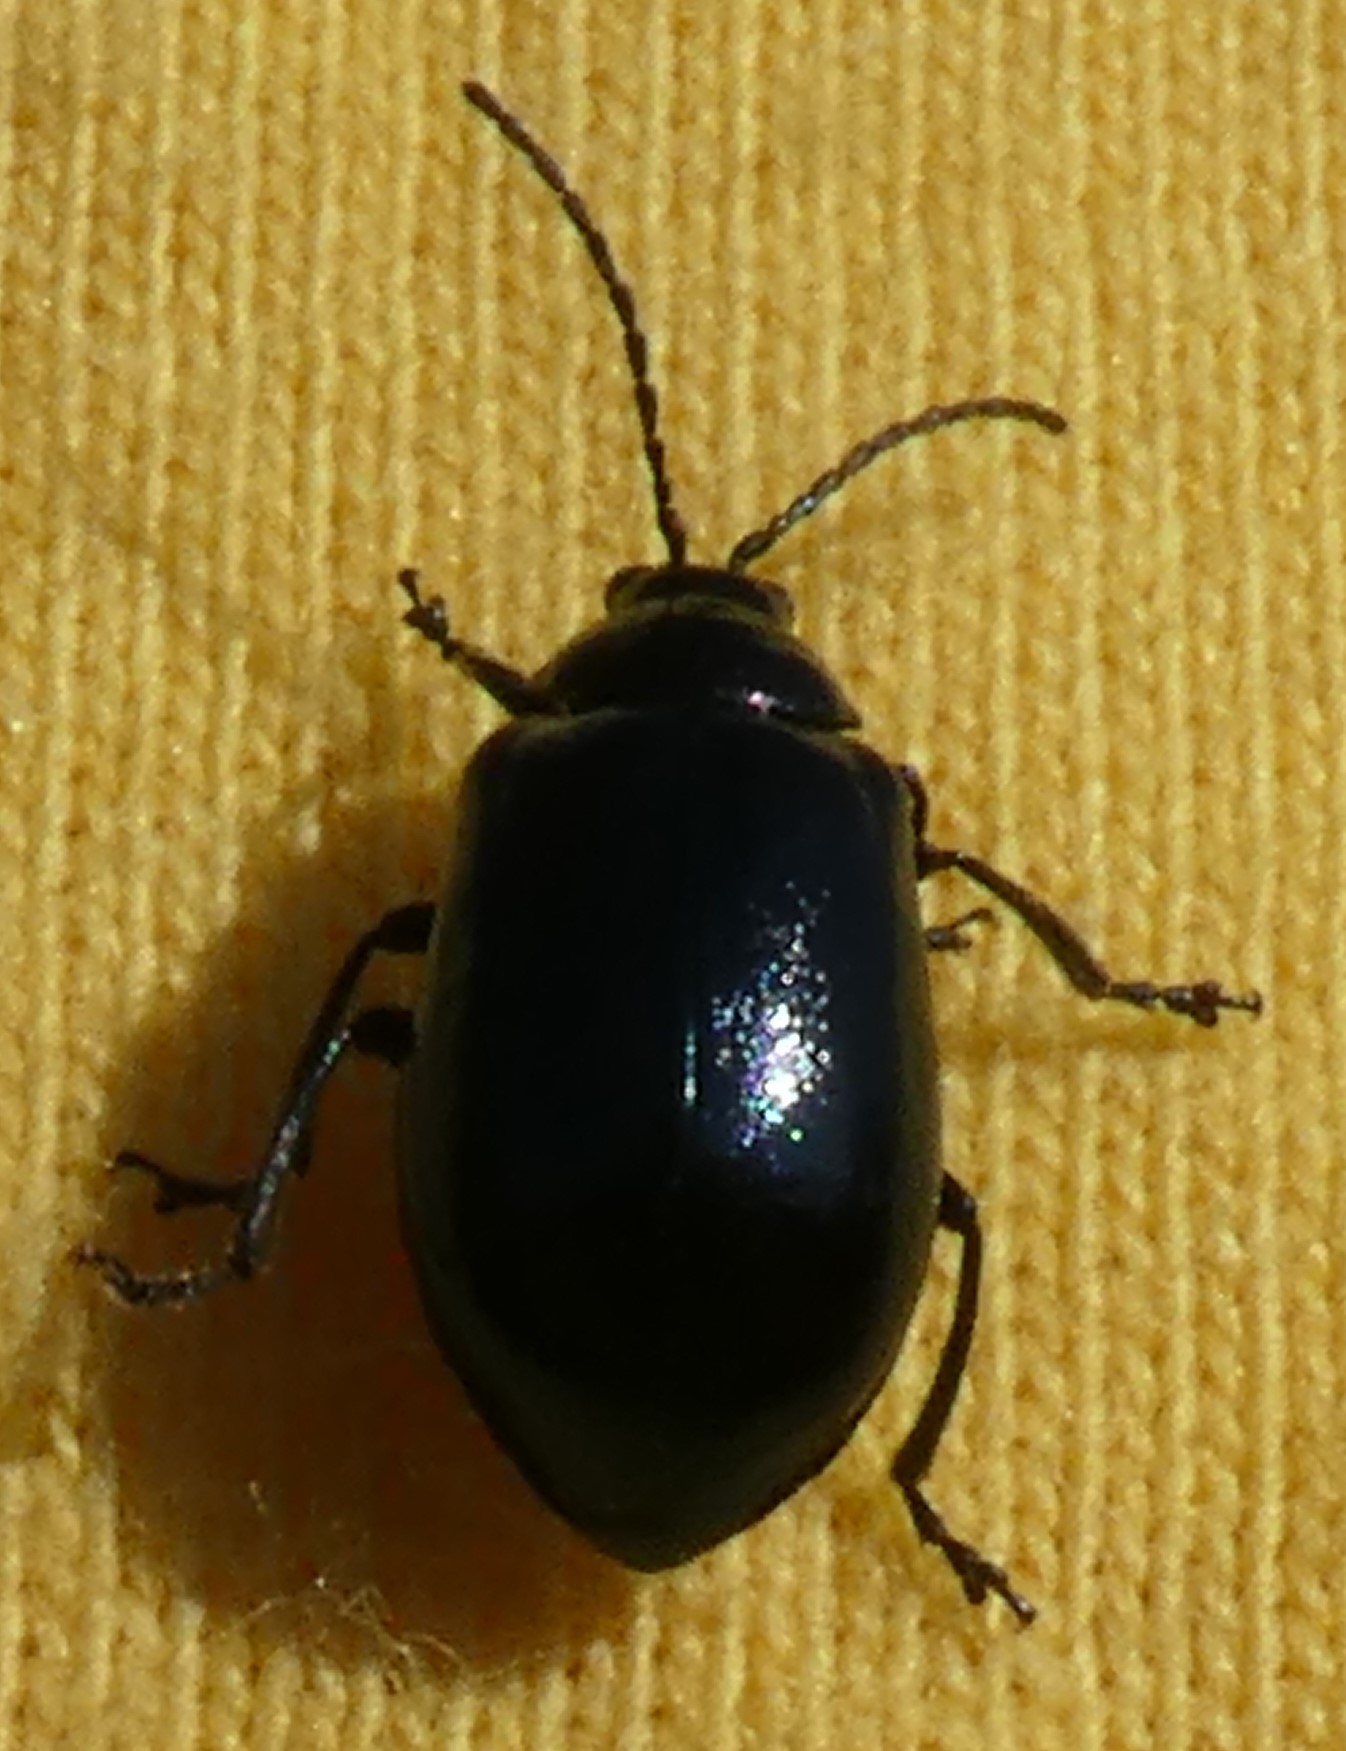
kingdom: Animalia
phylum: Arthropoda
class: Insecta
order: Coleoptera
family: Chrysomelidae
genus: Agelastica
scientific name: Agelastica alni
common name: Alder leaf beetle
